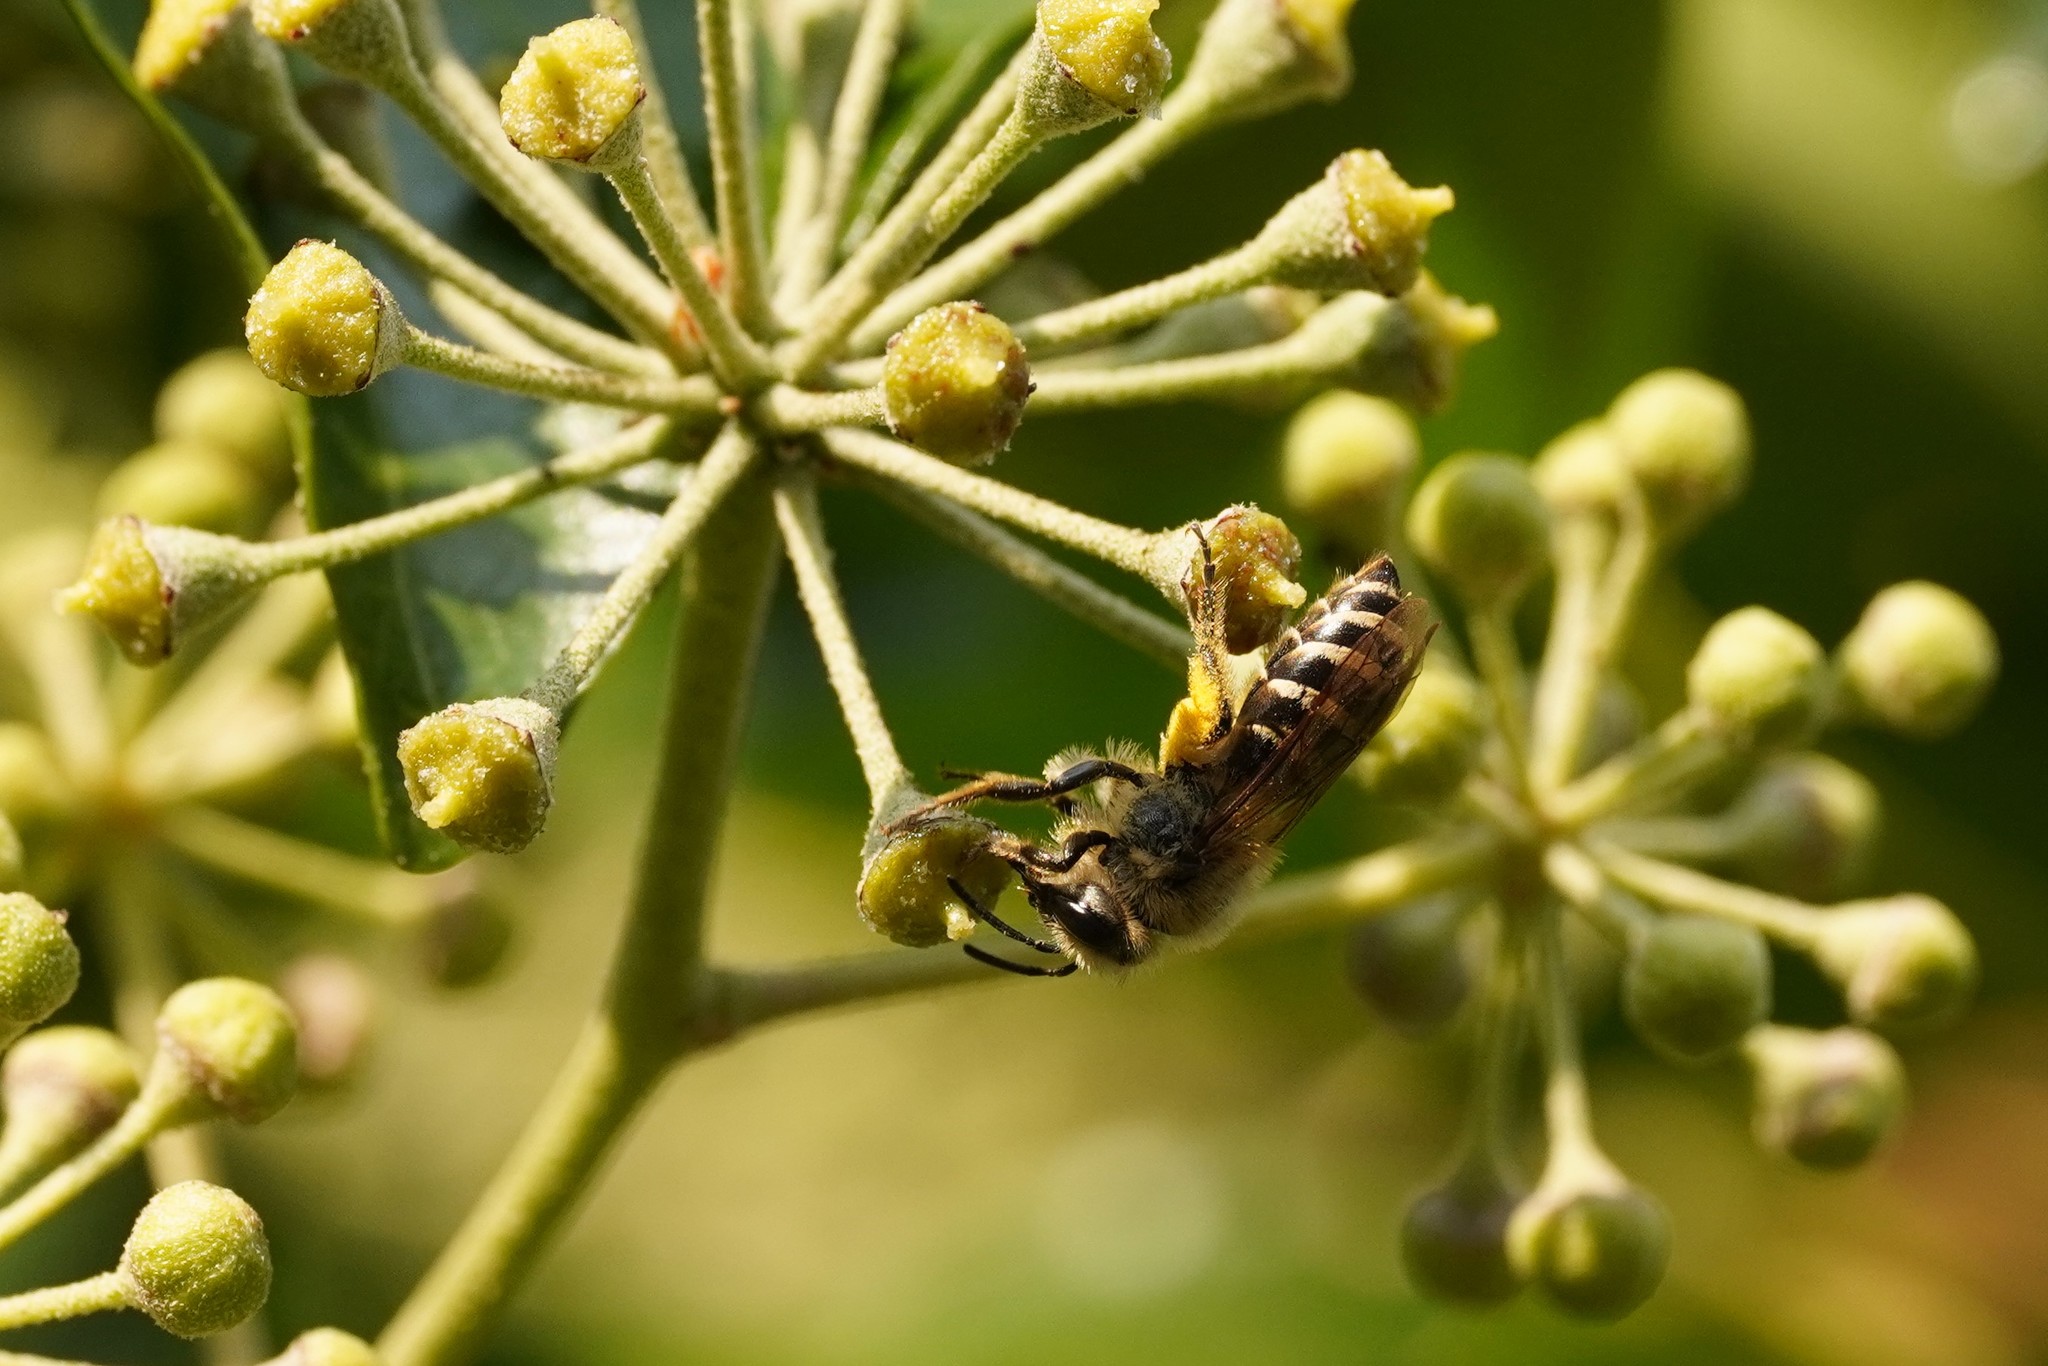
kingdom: Animalia
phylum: Arthropoda
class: Insecta
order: Hymenoptera
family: Colletidae
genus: Colletes
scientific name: Colletes hederae
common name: Ivy bee
